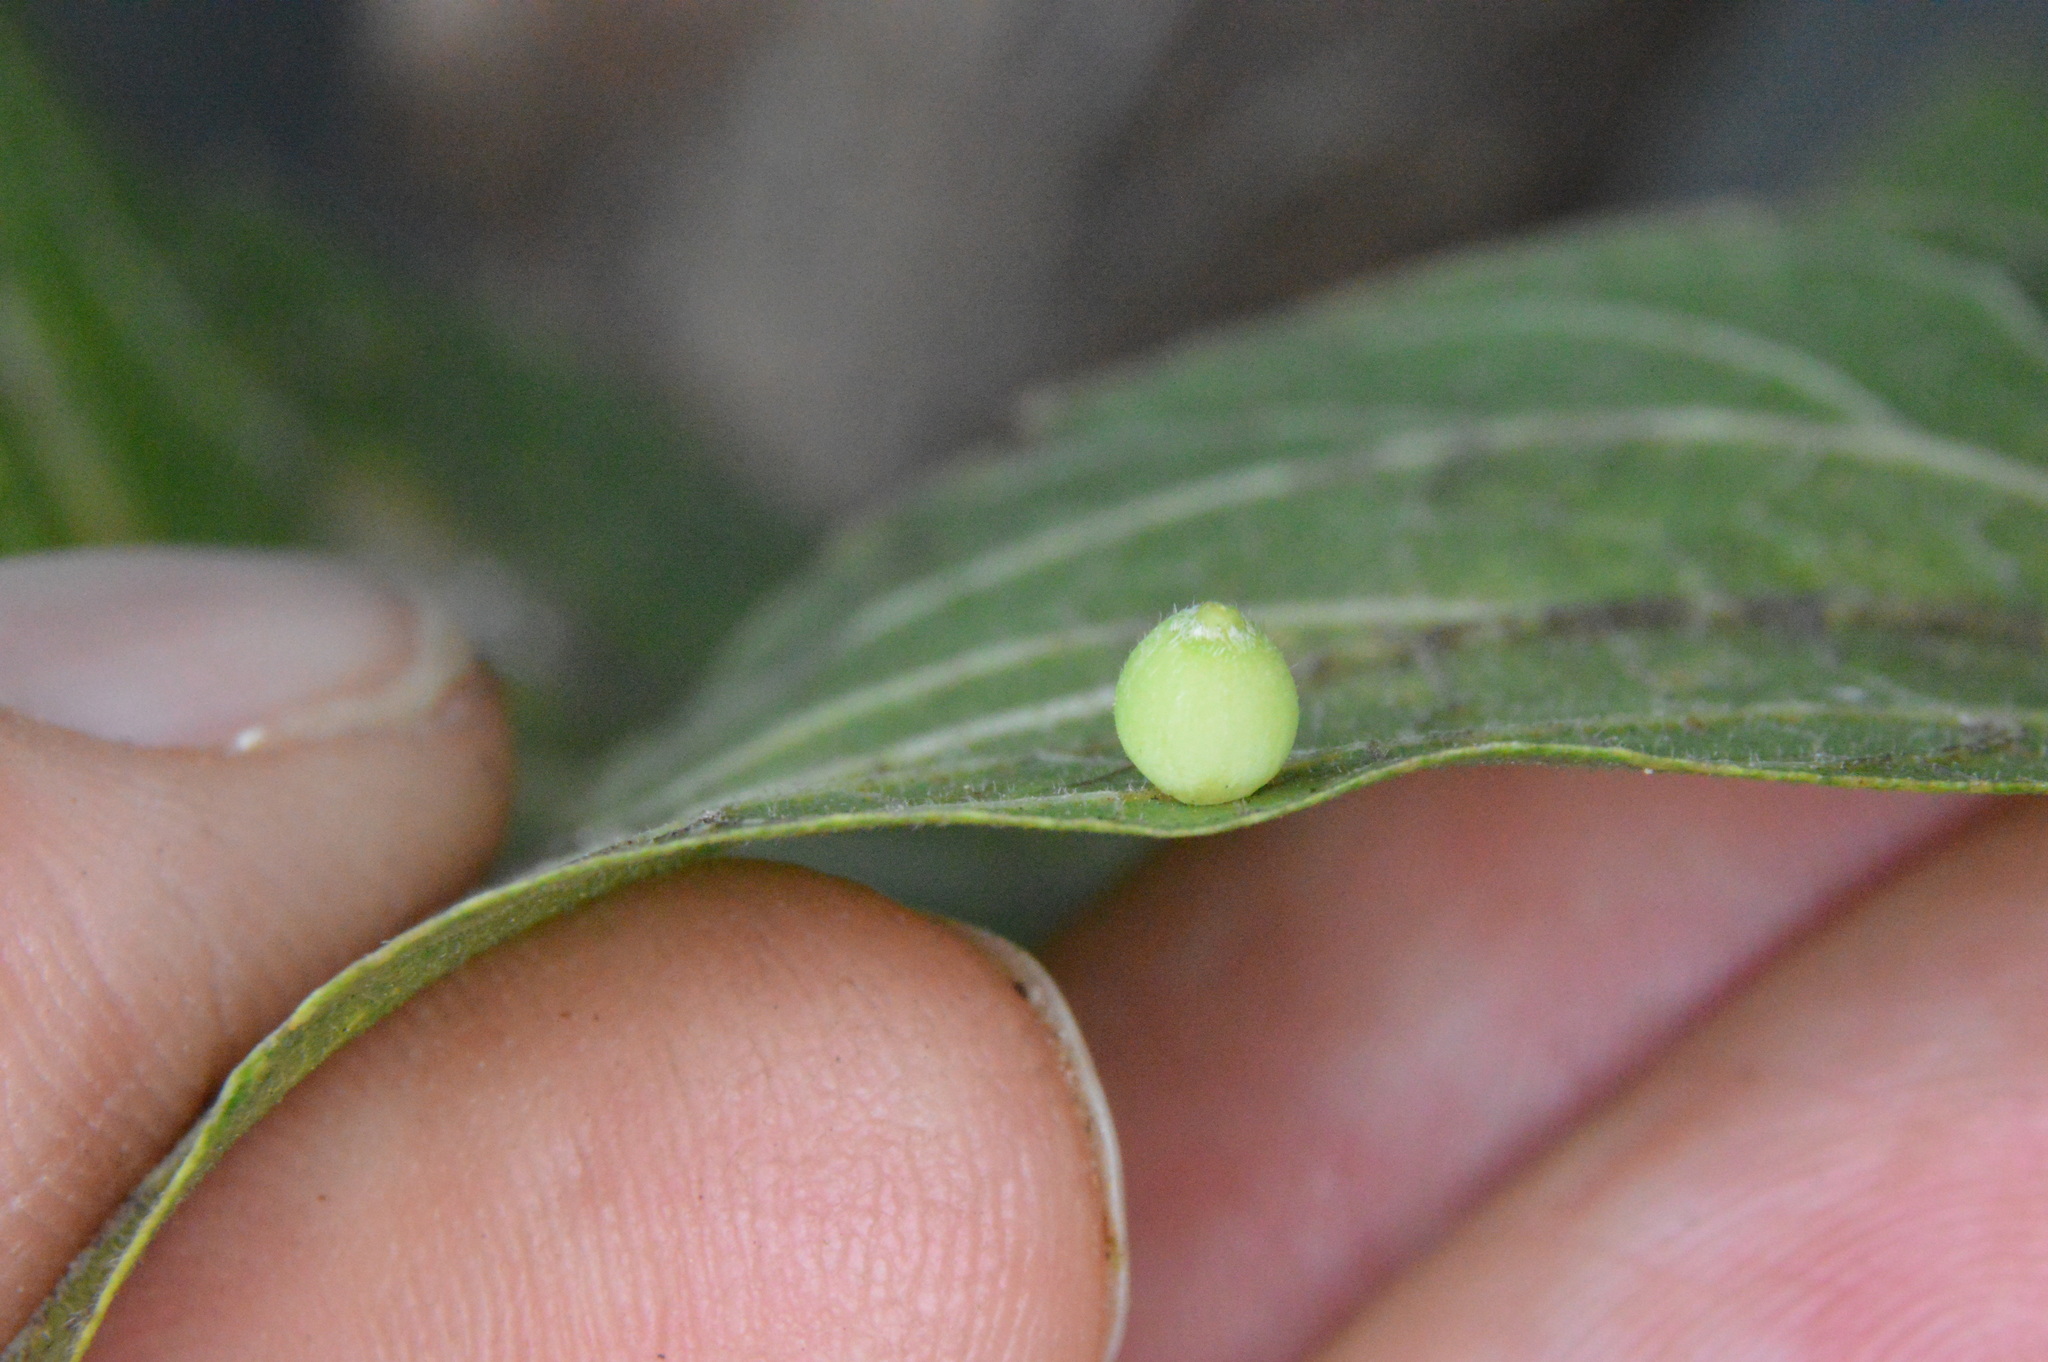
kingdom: Animalia
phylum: Arthropoda
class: Insecta
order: Diptera
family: Cecidomyiidae
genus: Celticecis
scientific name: Celticecis globosa
